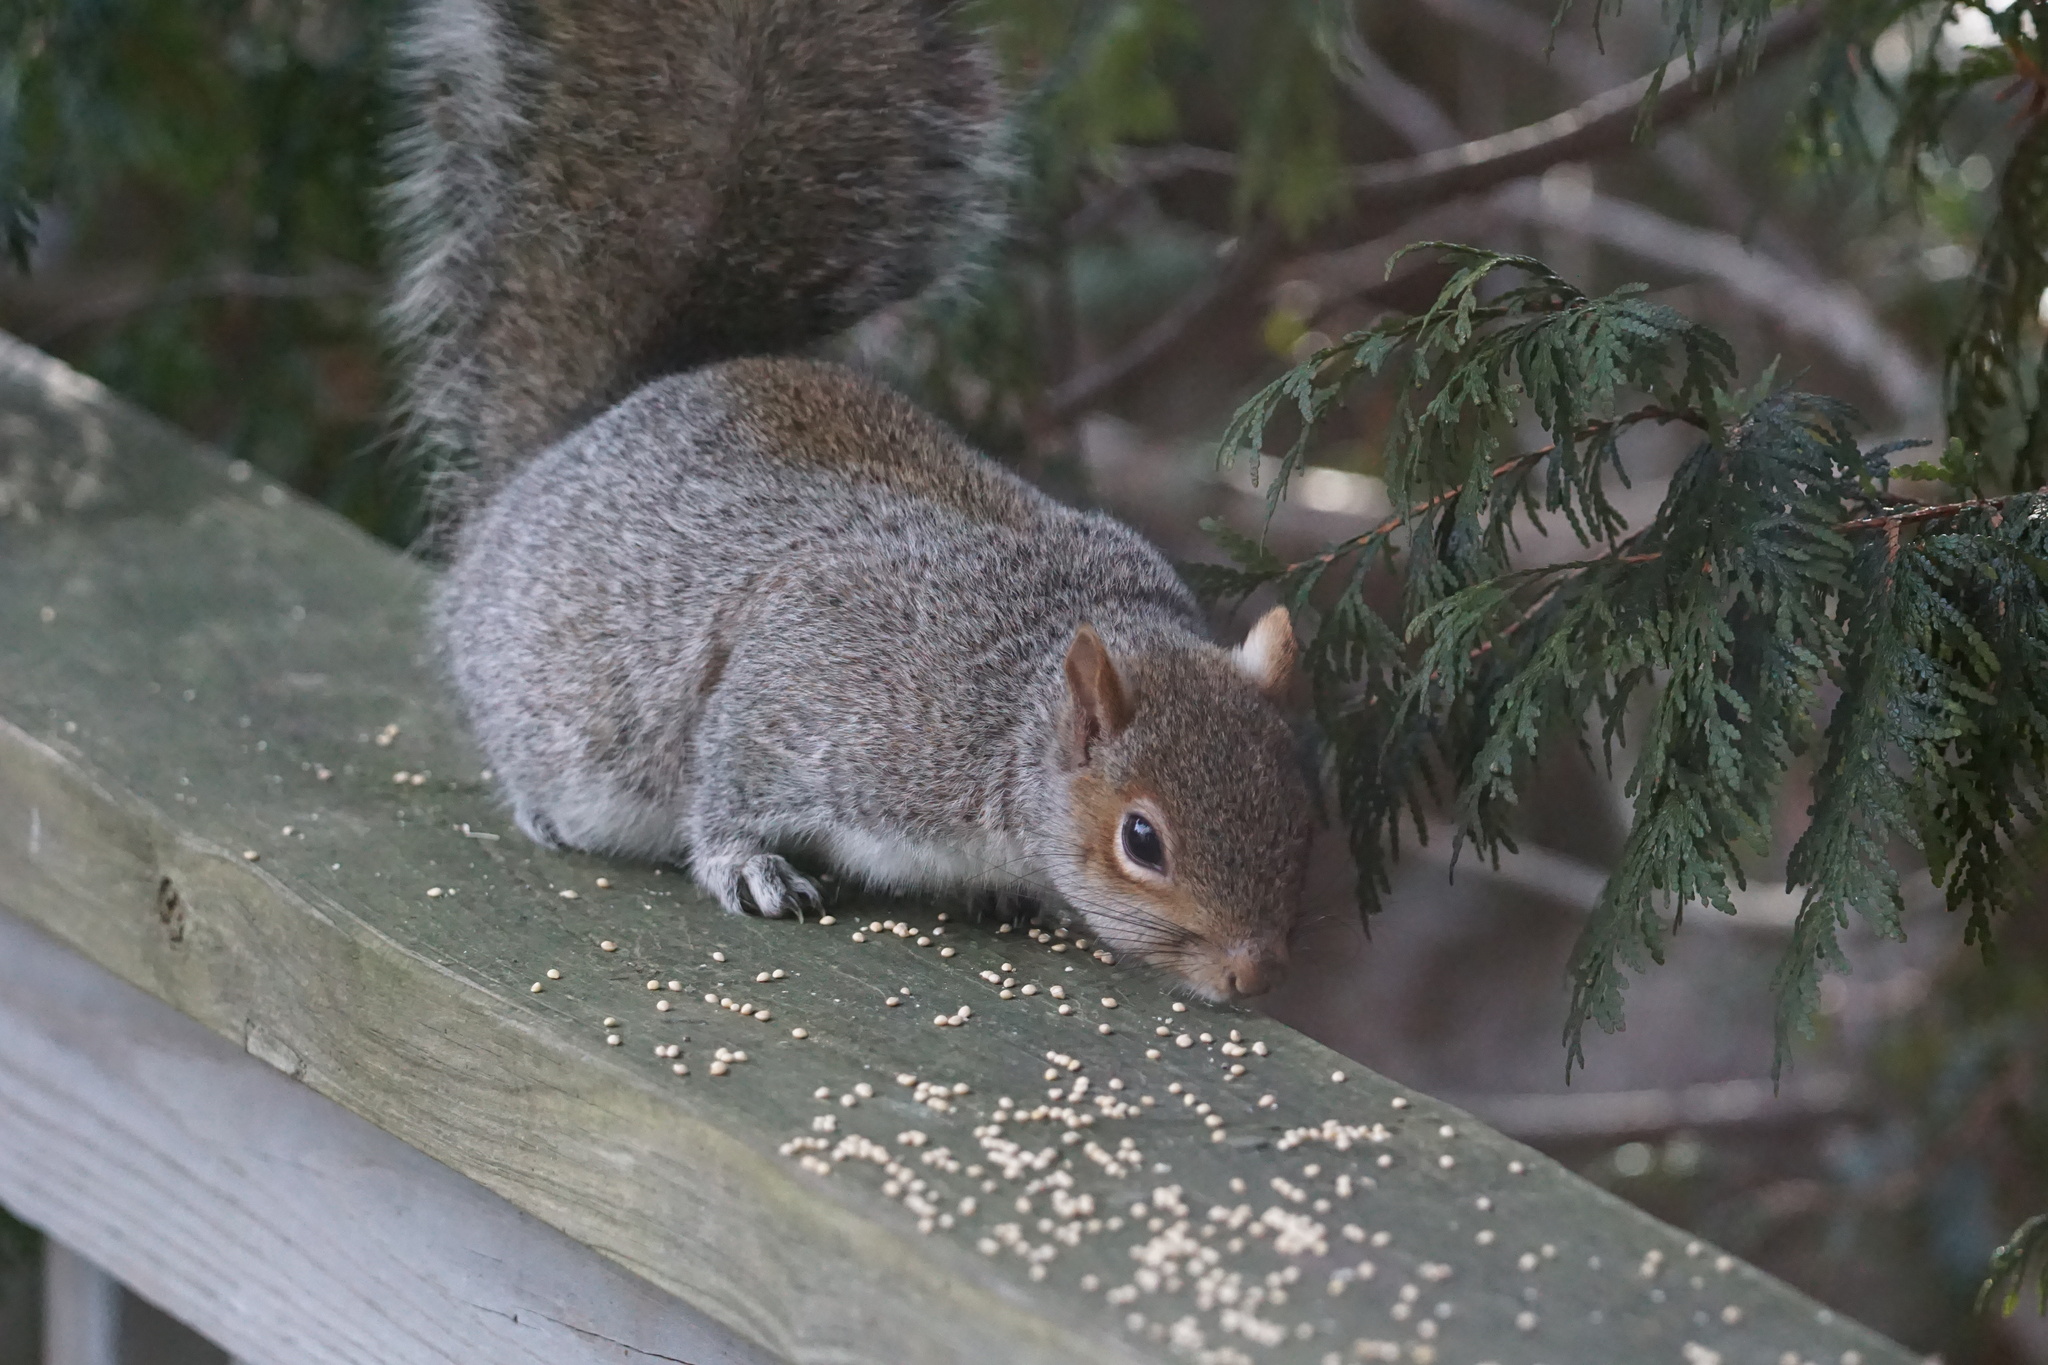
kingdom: Animalia
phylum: Chordata
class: Mammalia
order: Rodentia
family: Sciuridae
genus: Sciurus
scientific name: Sciurus carolinensis
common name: Eastern gray squirrel
